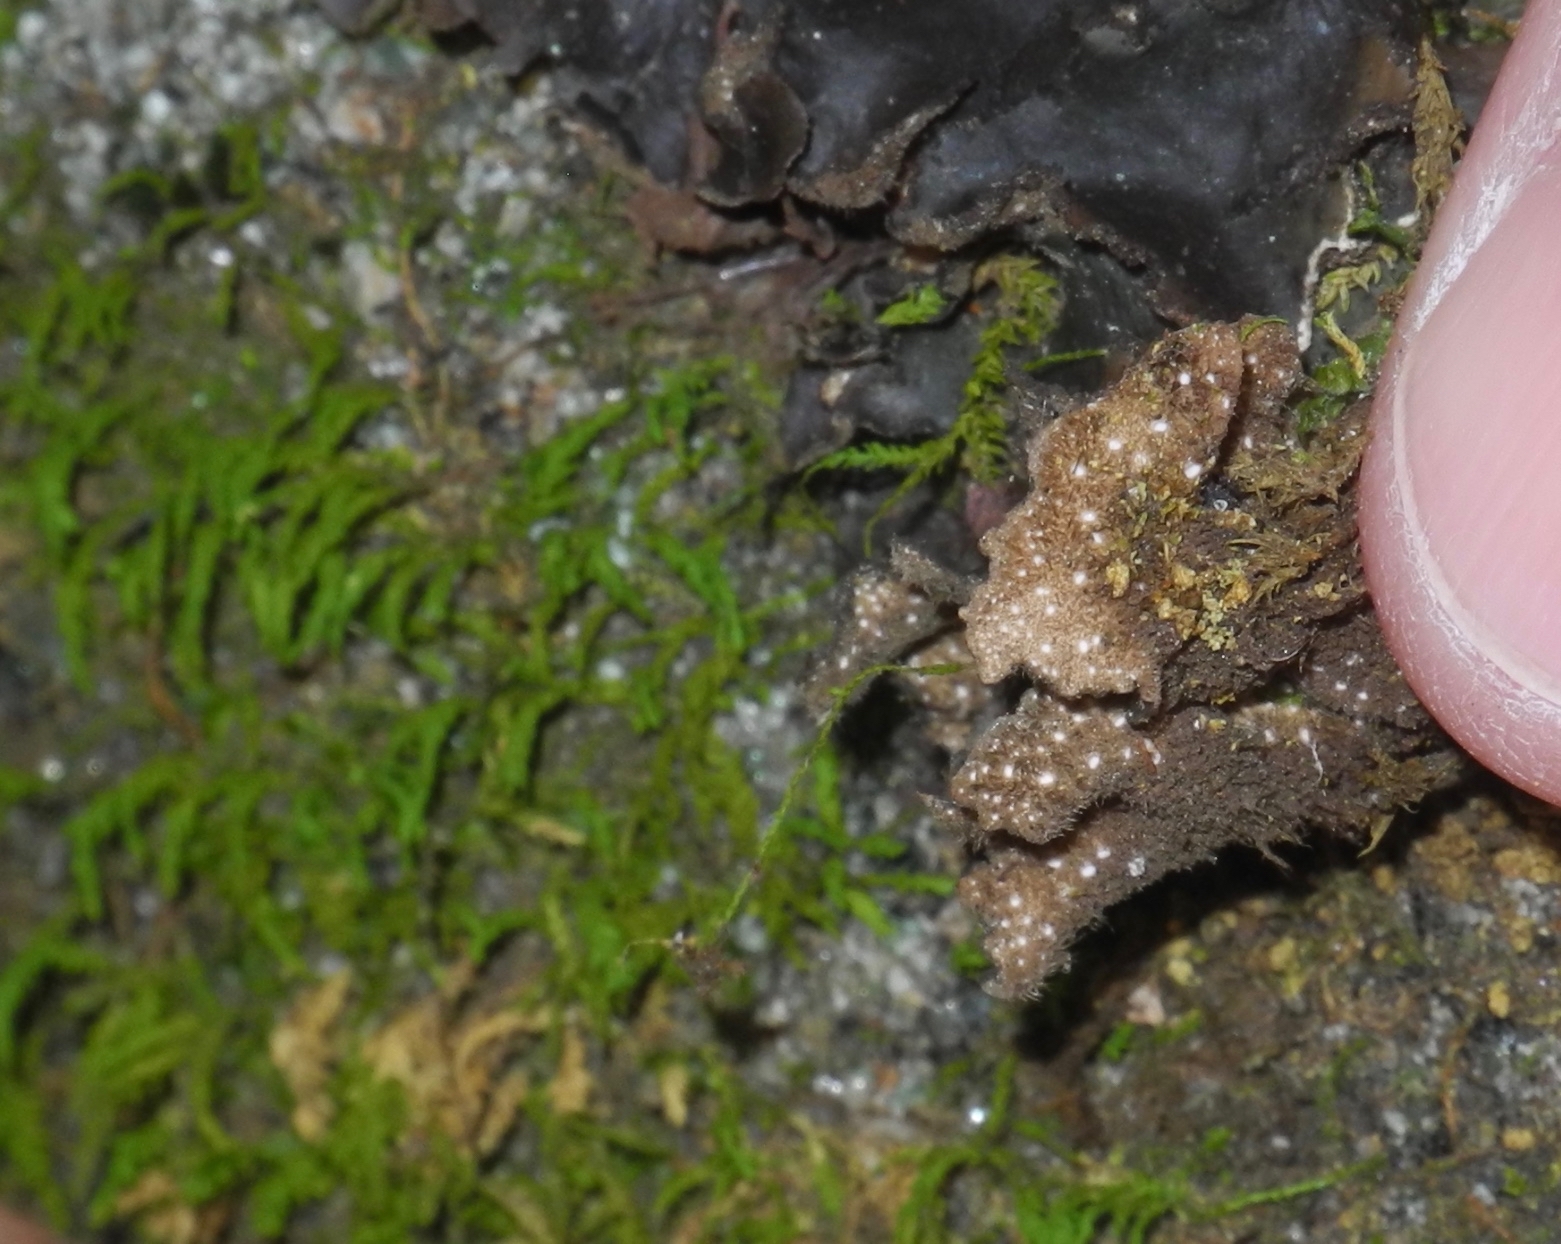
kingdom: Fungi
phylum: Ascomycota
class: Lecanoromycetes
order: Peltigerales
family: Lobariaceae
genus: Sticta
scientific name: Sticta beauvoisii
